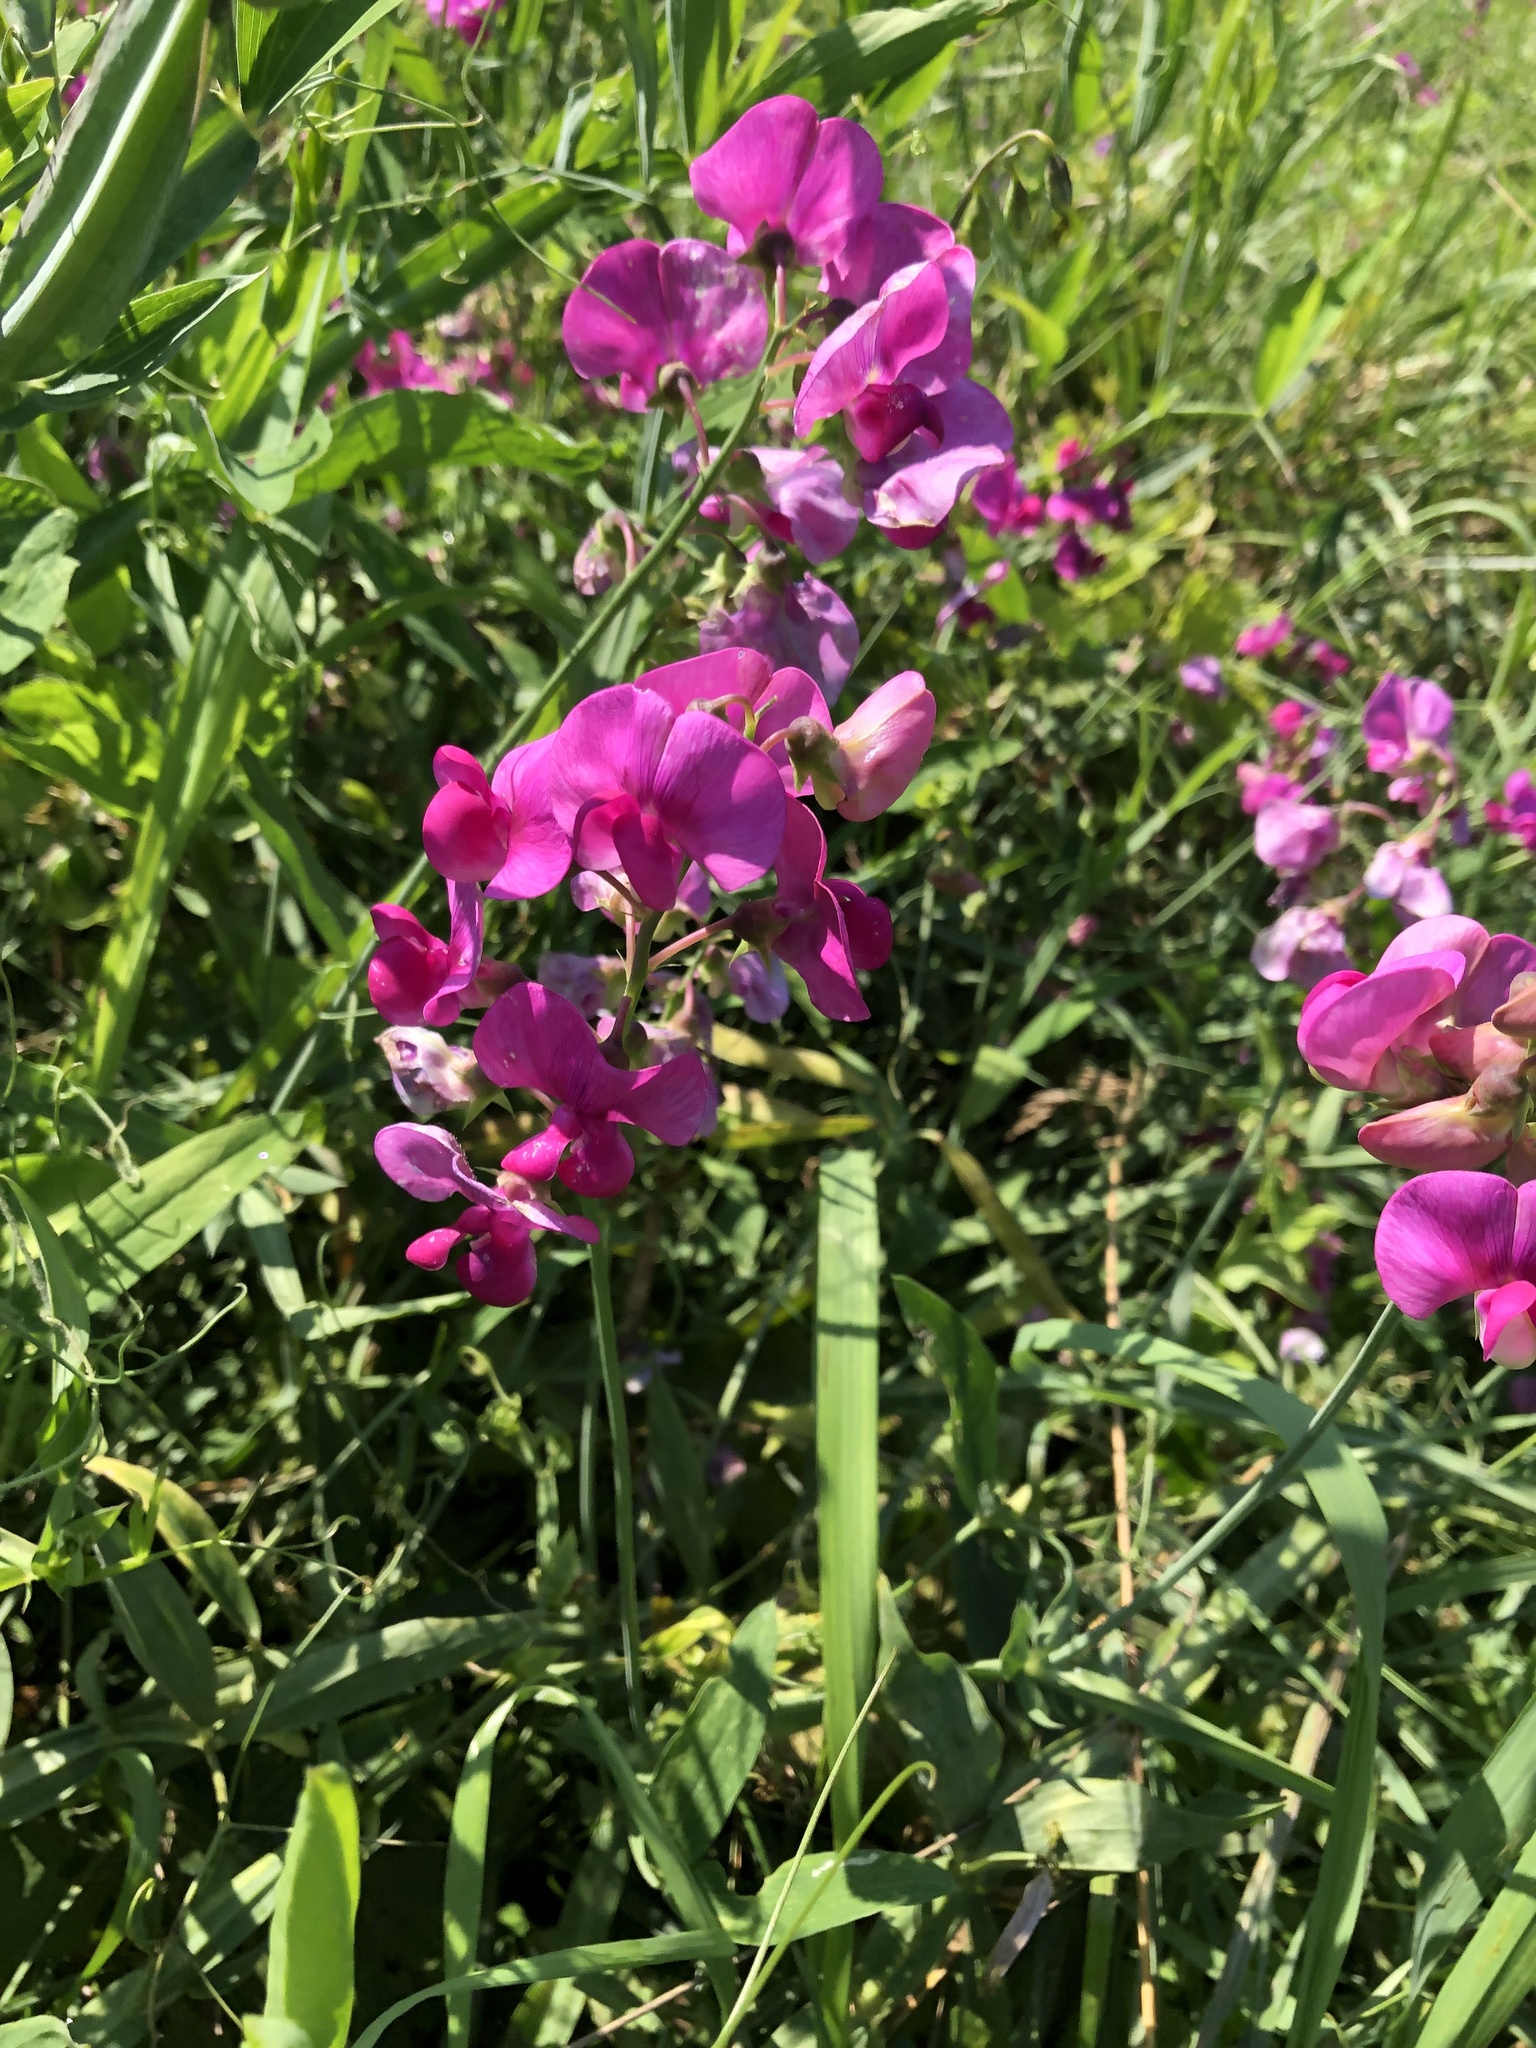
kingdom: Plantae
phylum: Tracheophyta
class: Magnoliopsida
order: Fabales
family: Fabaceae
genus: Lathyrus
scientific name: Lathyrus latifolius
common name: Perennial pea
